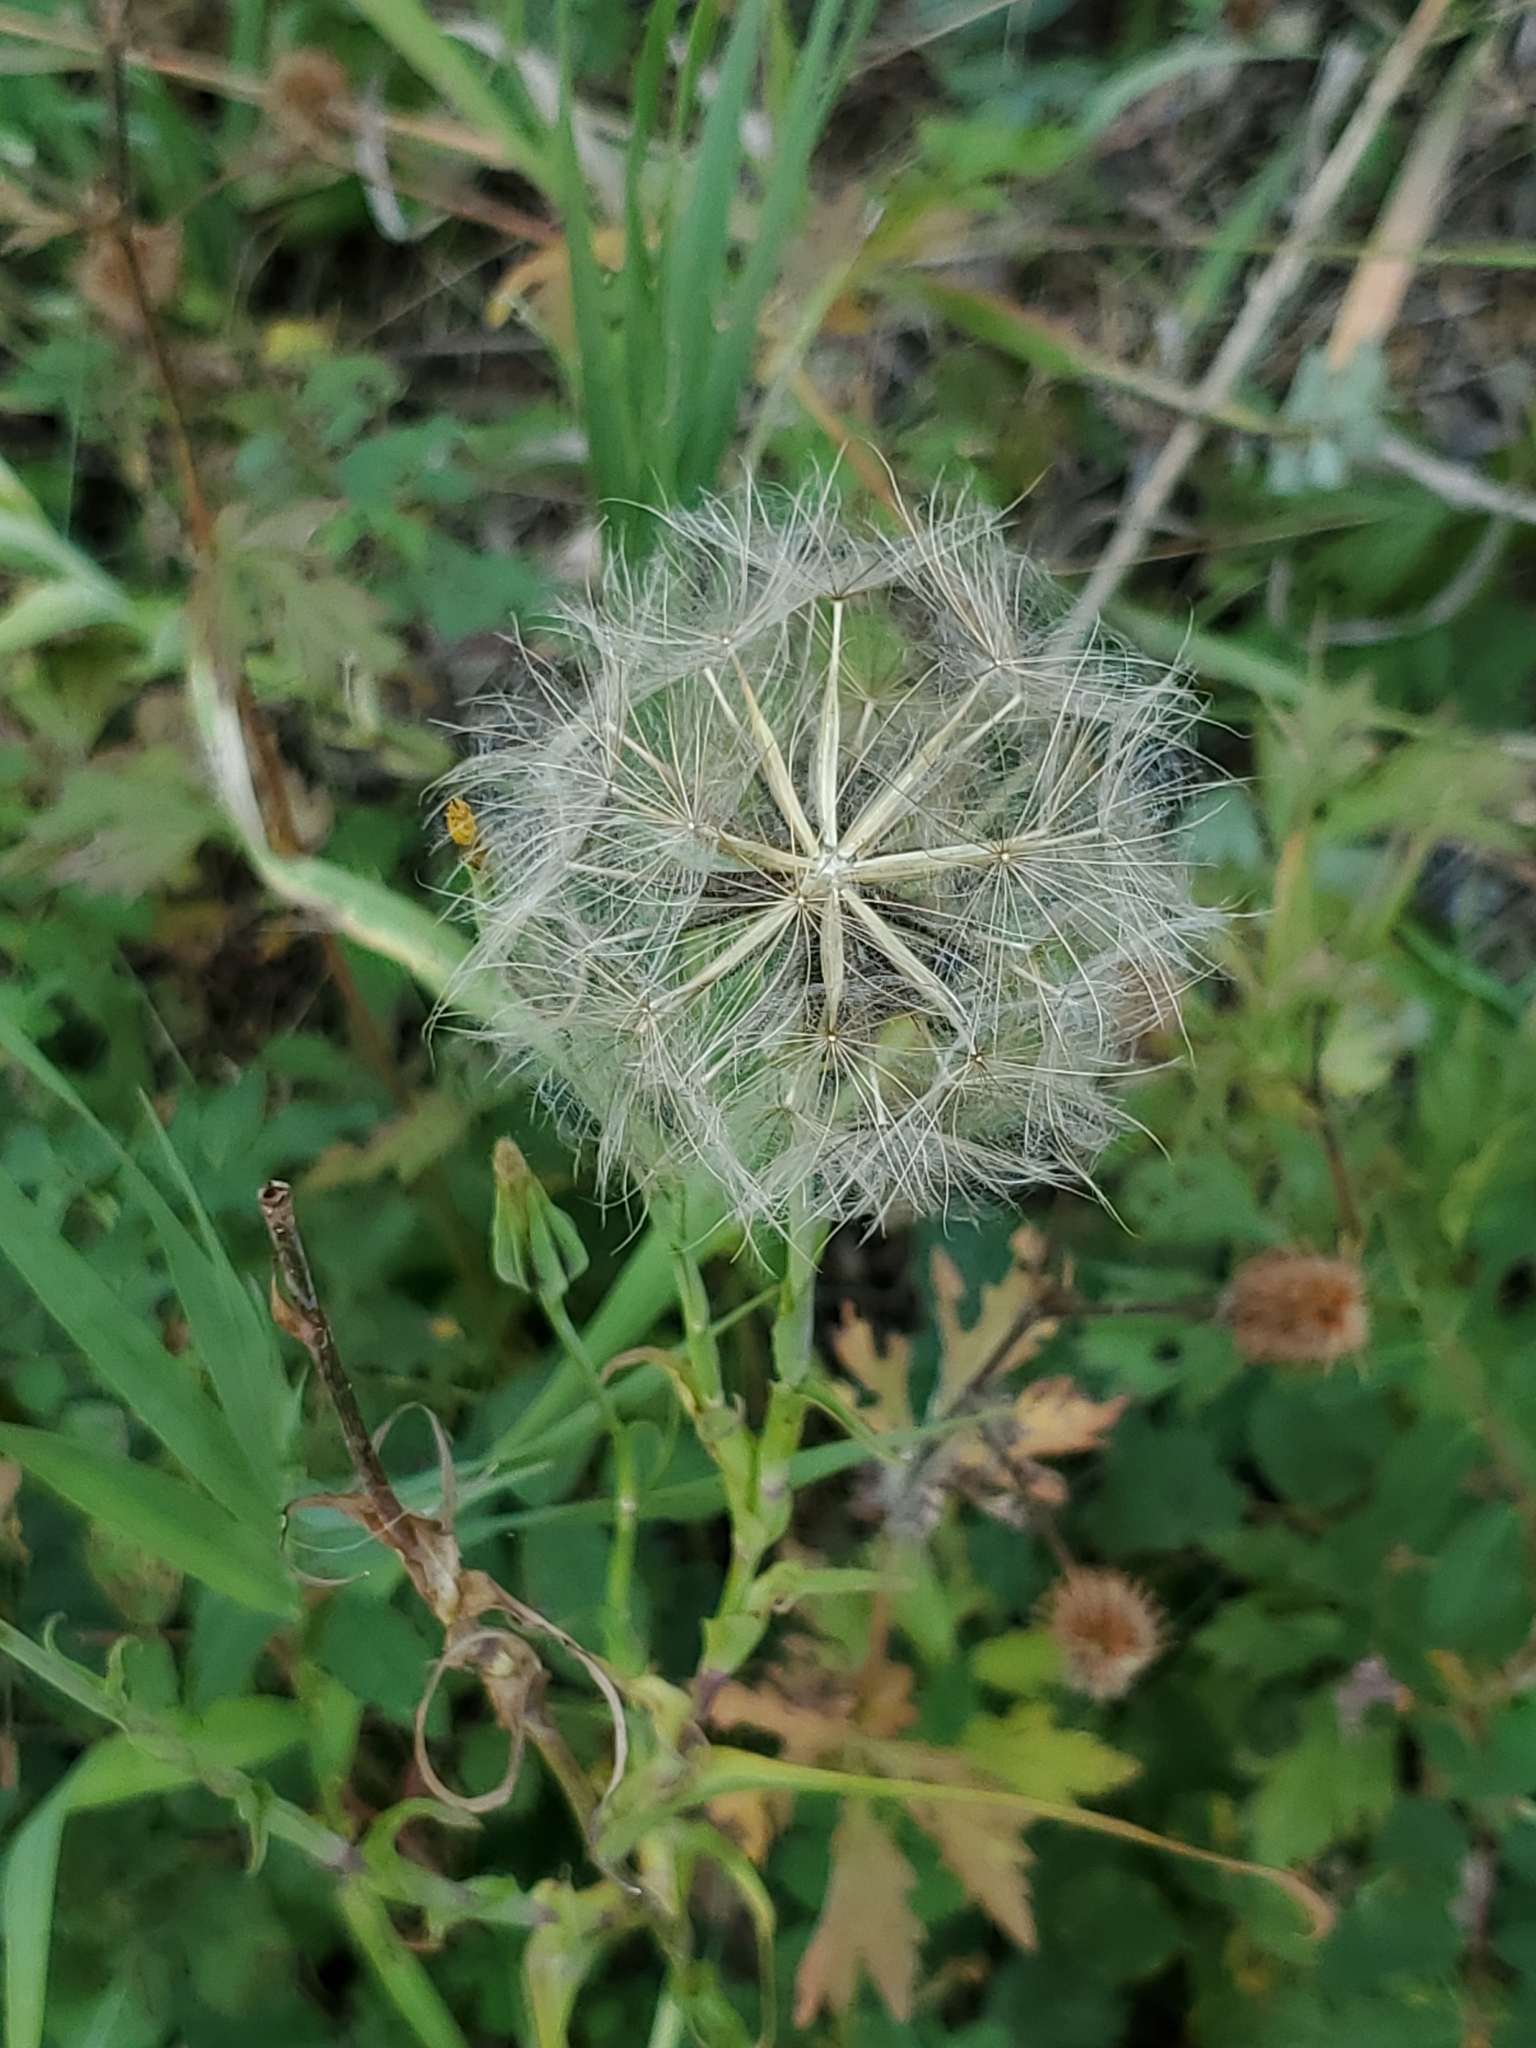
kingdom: Plantae
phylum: Tracheophyta
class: Magnoliopsida
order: Asterales
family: Asteraceae
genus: Tragopogon
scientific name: Tragopogon dubius
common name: Yellow salsify
